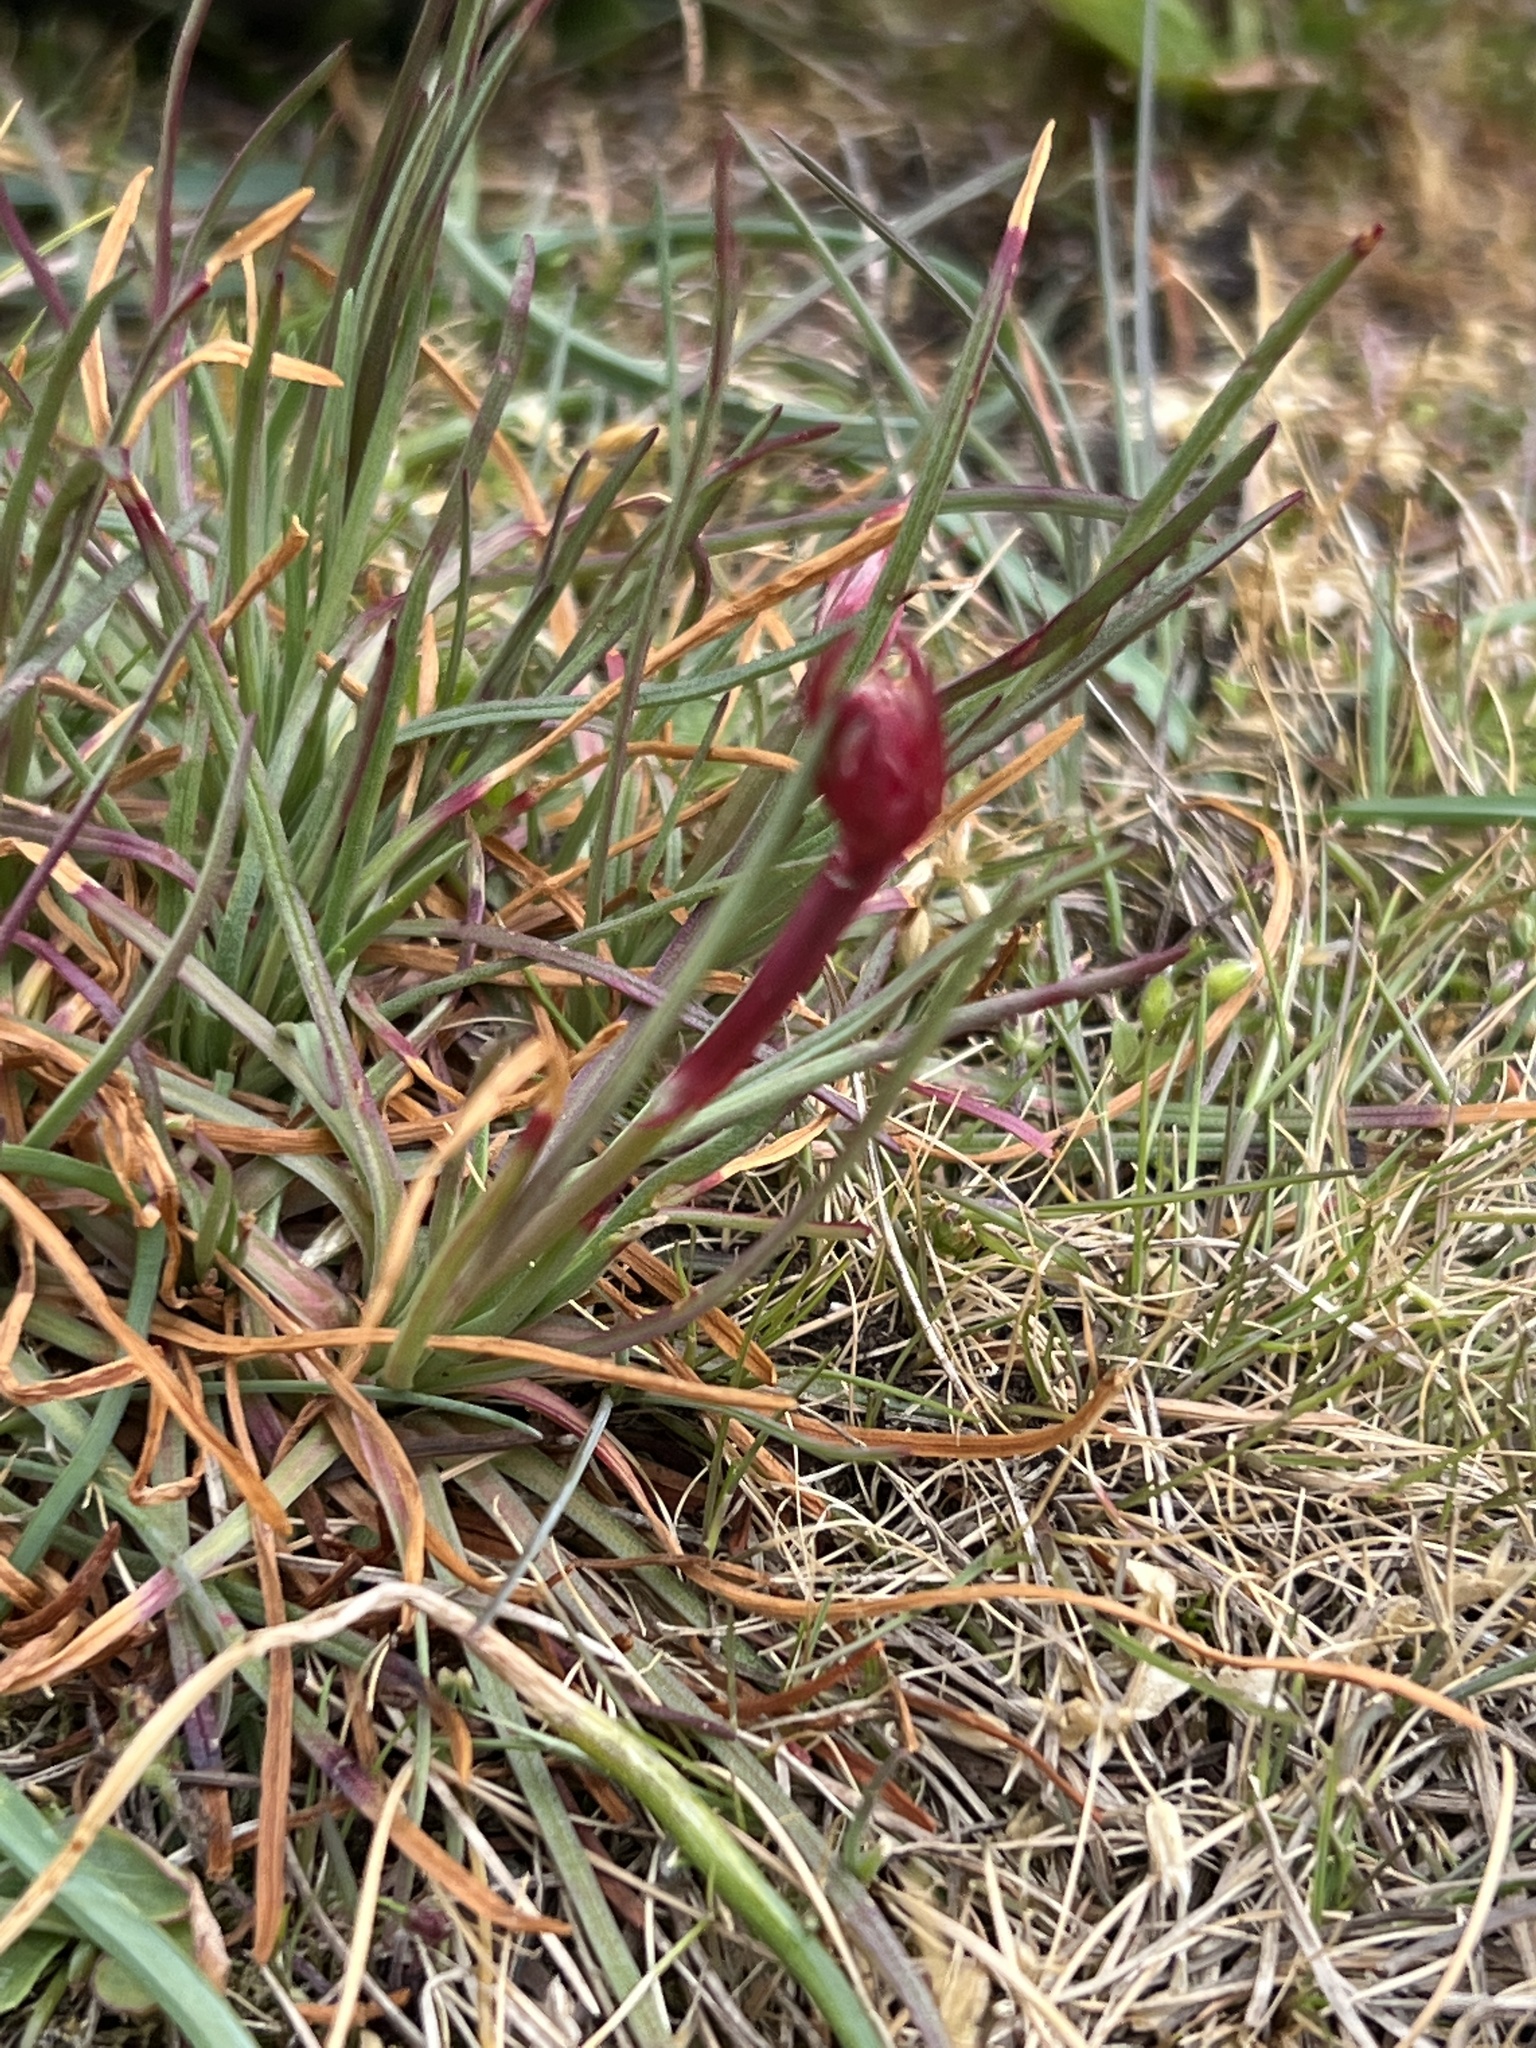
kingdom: Plantae
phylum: Tracheophyta
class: Magnoliopsida
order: Caryophyllales
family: Plumbaginaceae
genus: Armeria
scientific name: Armeria maritima
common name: Thrift
